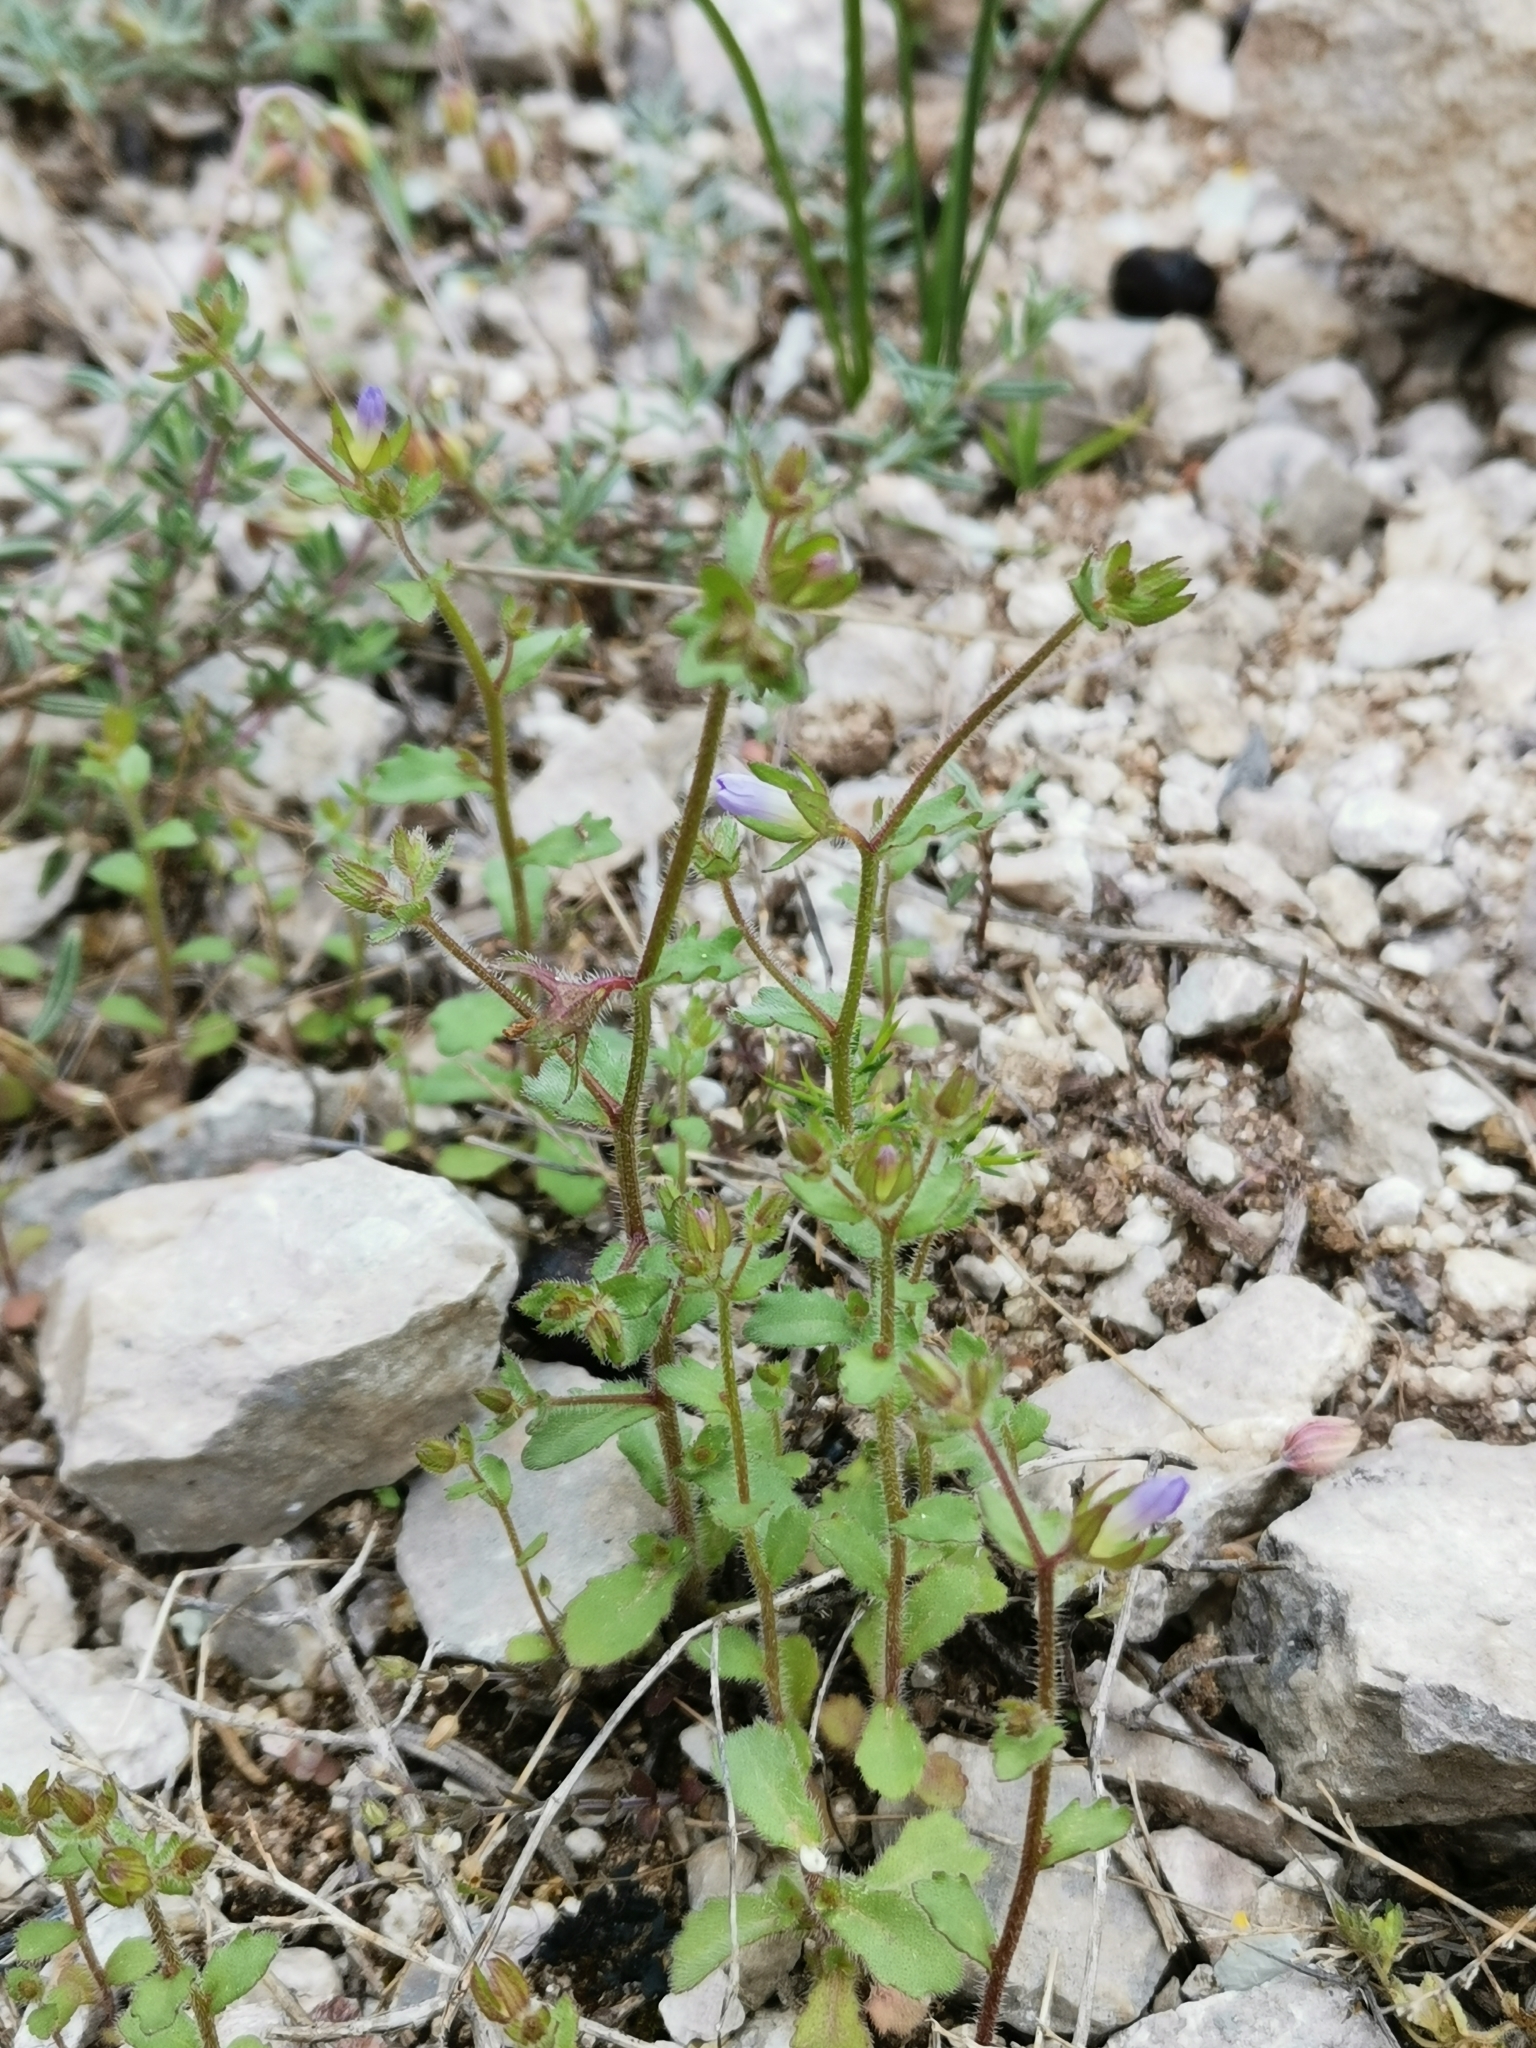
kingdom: Plantae
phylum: Tracheophyta
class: Magnoliopsida
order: Asterales
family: Campanulaceae
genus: Campanula
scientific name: Campanula erinus
